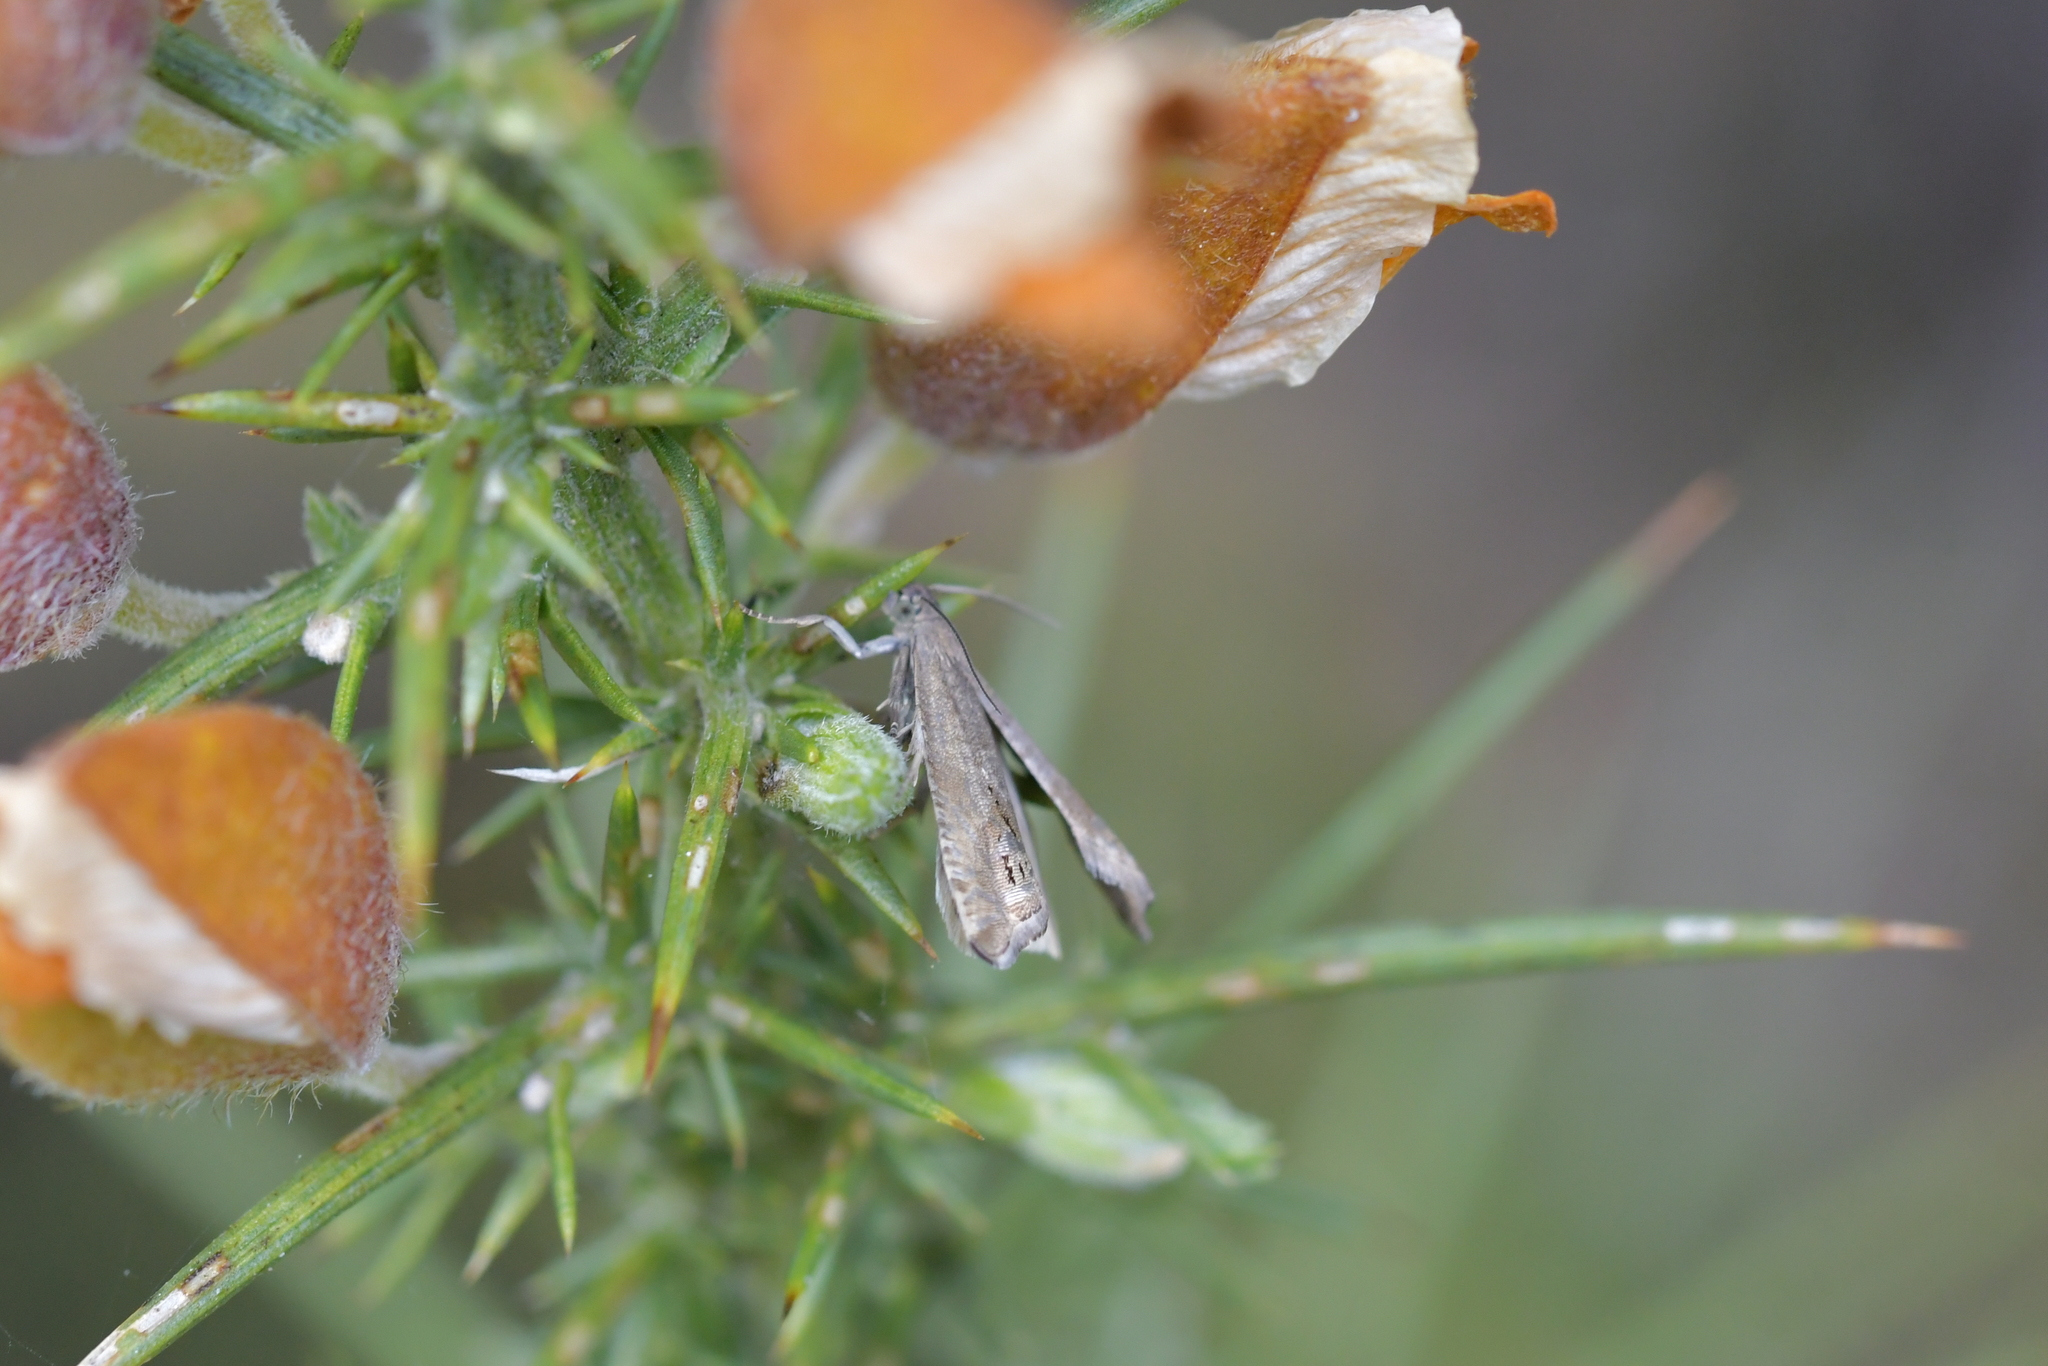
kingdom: Animalia
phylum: Arthropoda
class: Insecta
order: Lepidoptera
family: Tortricidae
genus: Cydia
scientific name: Cydia succedana
